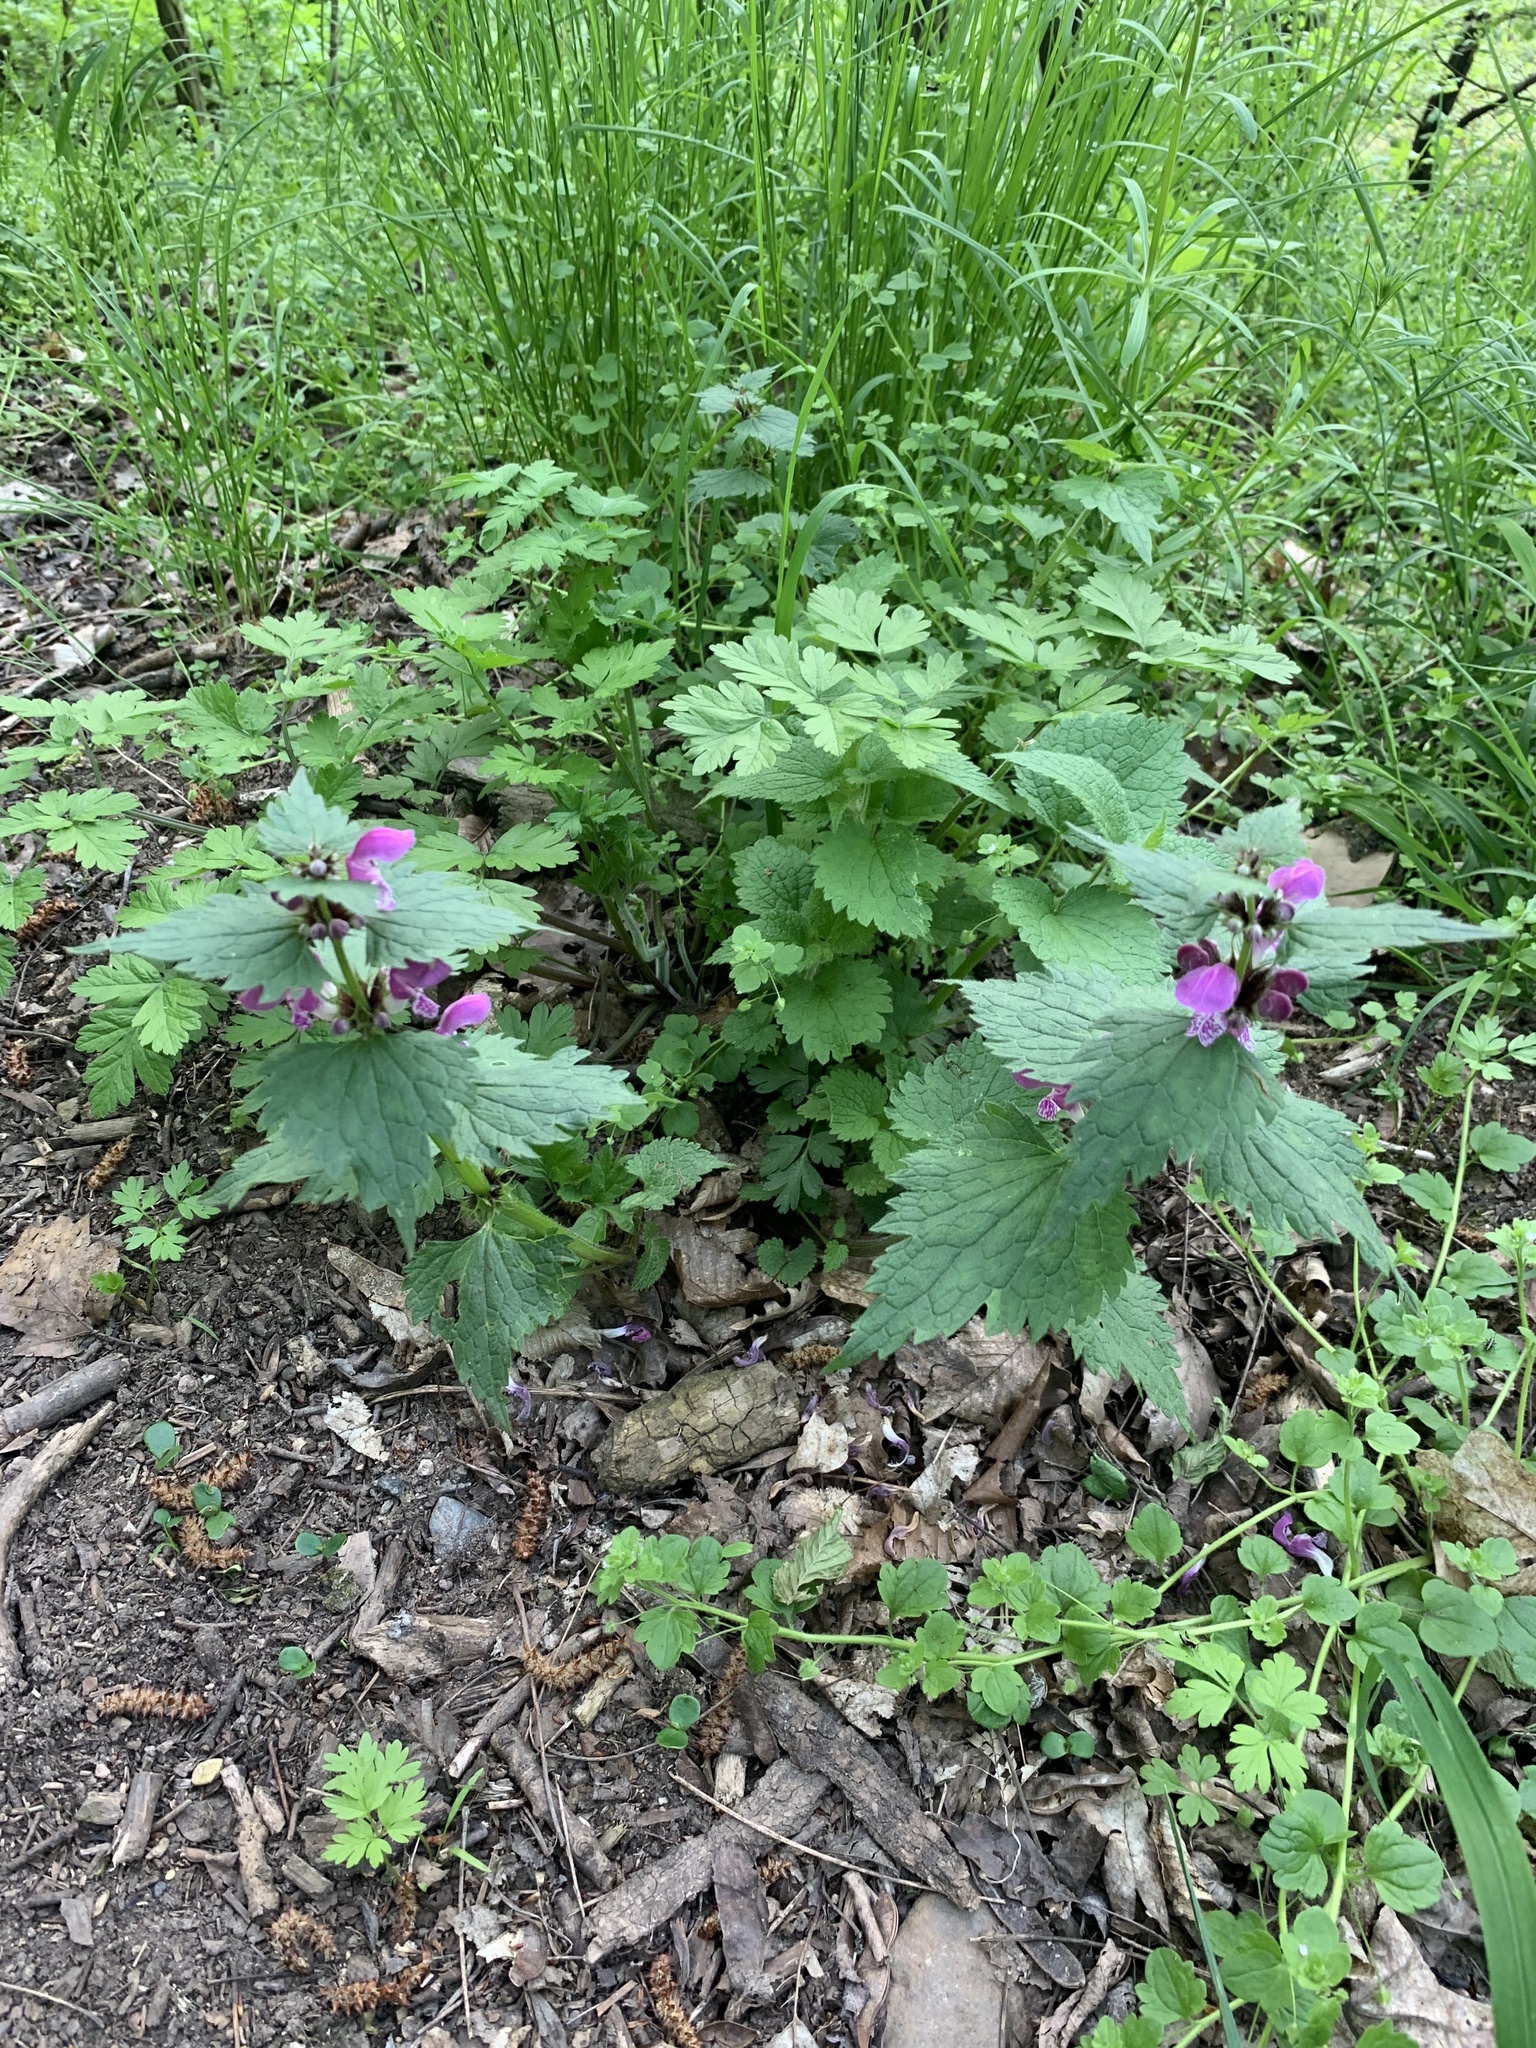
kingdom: Plantae
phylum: Tracheophyta
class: Magnoliopsida
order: Lamiales
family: Lamiaceae
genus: Lamium
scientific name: Lamium maculatum
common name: Spotted dead-nettle
